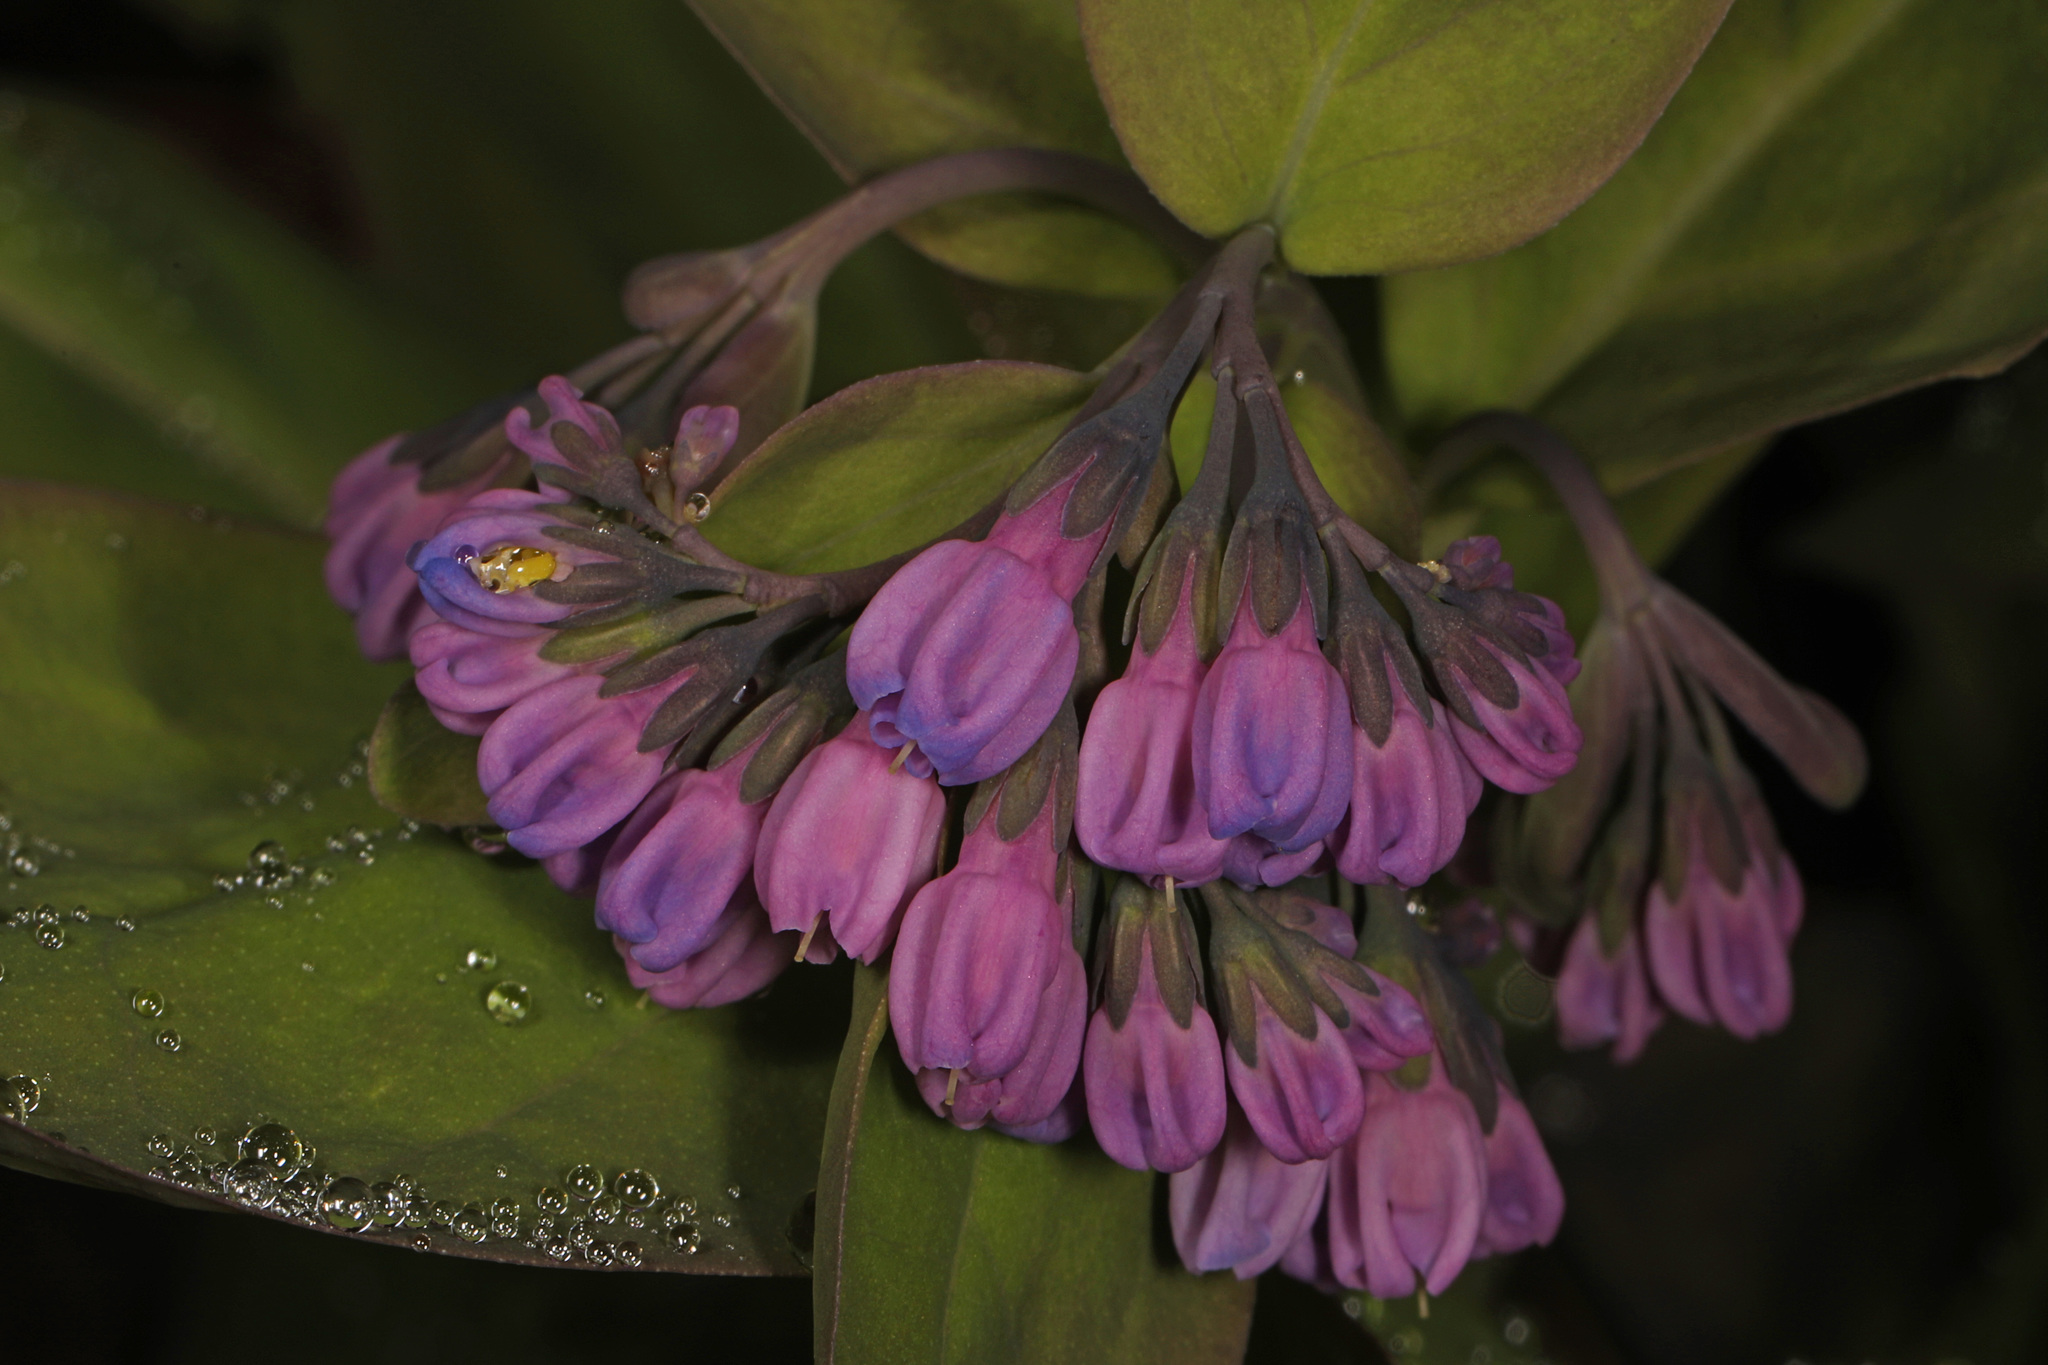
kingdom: Plantae
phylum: Tracheophyta
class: Magnoliopsida
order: Boraginales
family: Boraginaceae
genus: Mertensia
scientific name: Mertensia virginica
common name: Virginia bluebells
